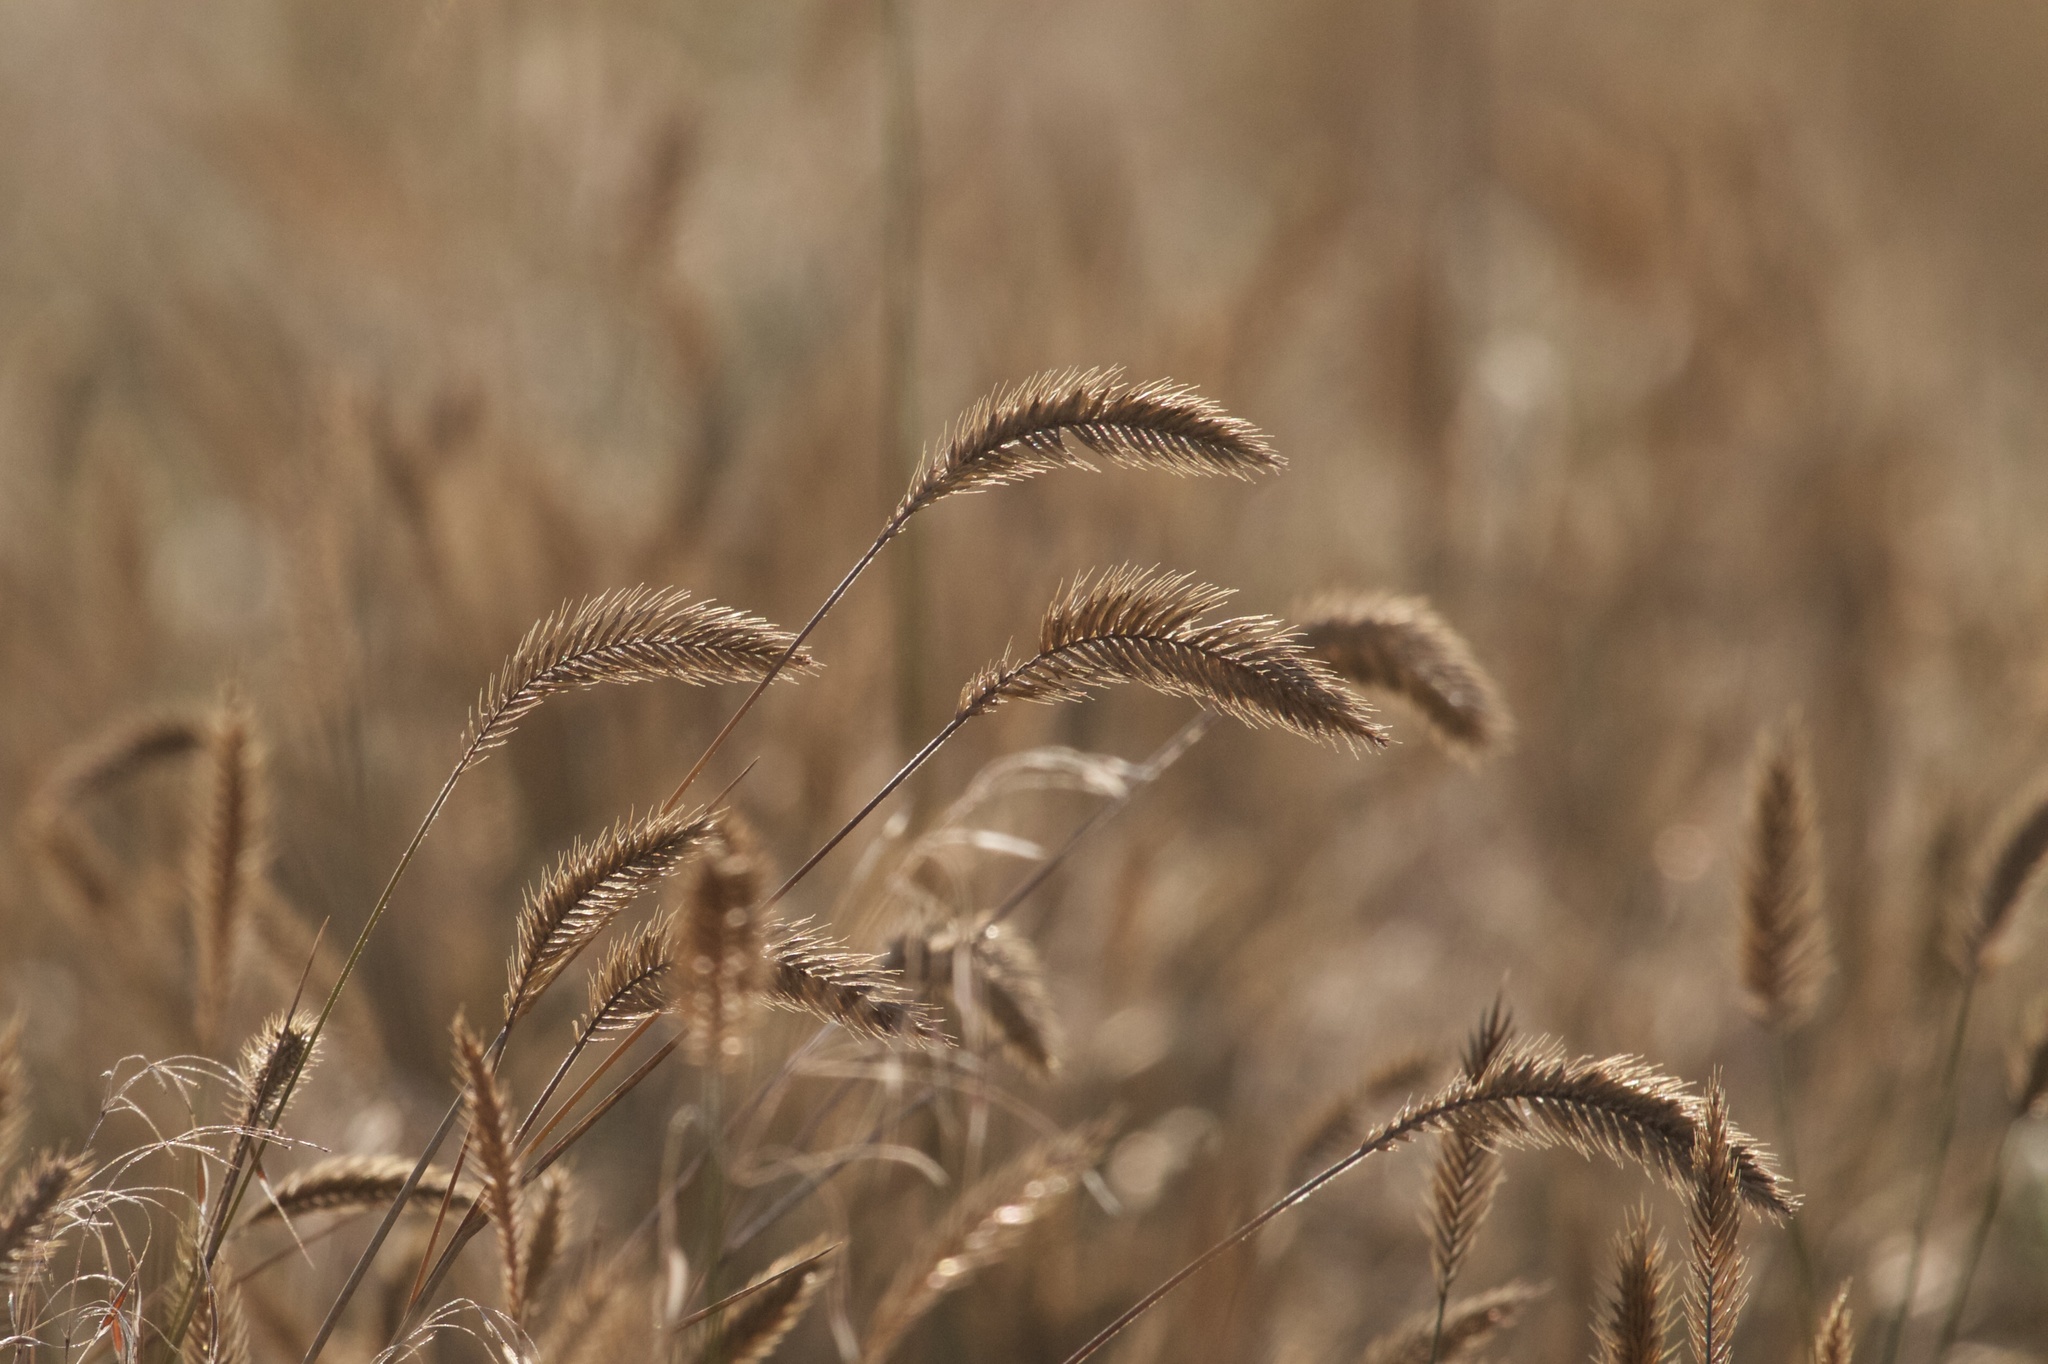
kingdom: Plantae
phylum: Tracheophyta
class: Liliopsida
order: Poales
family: Poaceae
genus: Agropyron
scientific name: Agropyron cristatum
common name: Crested wheatgrass
